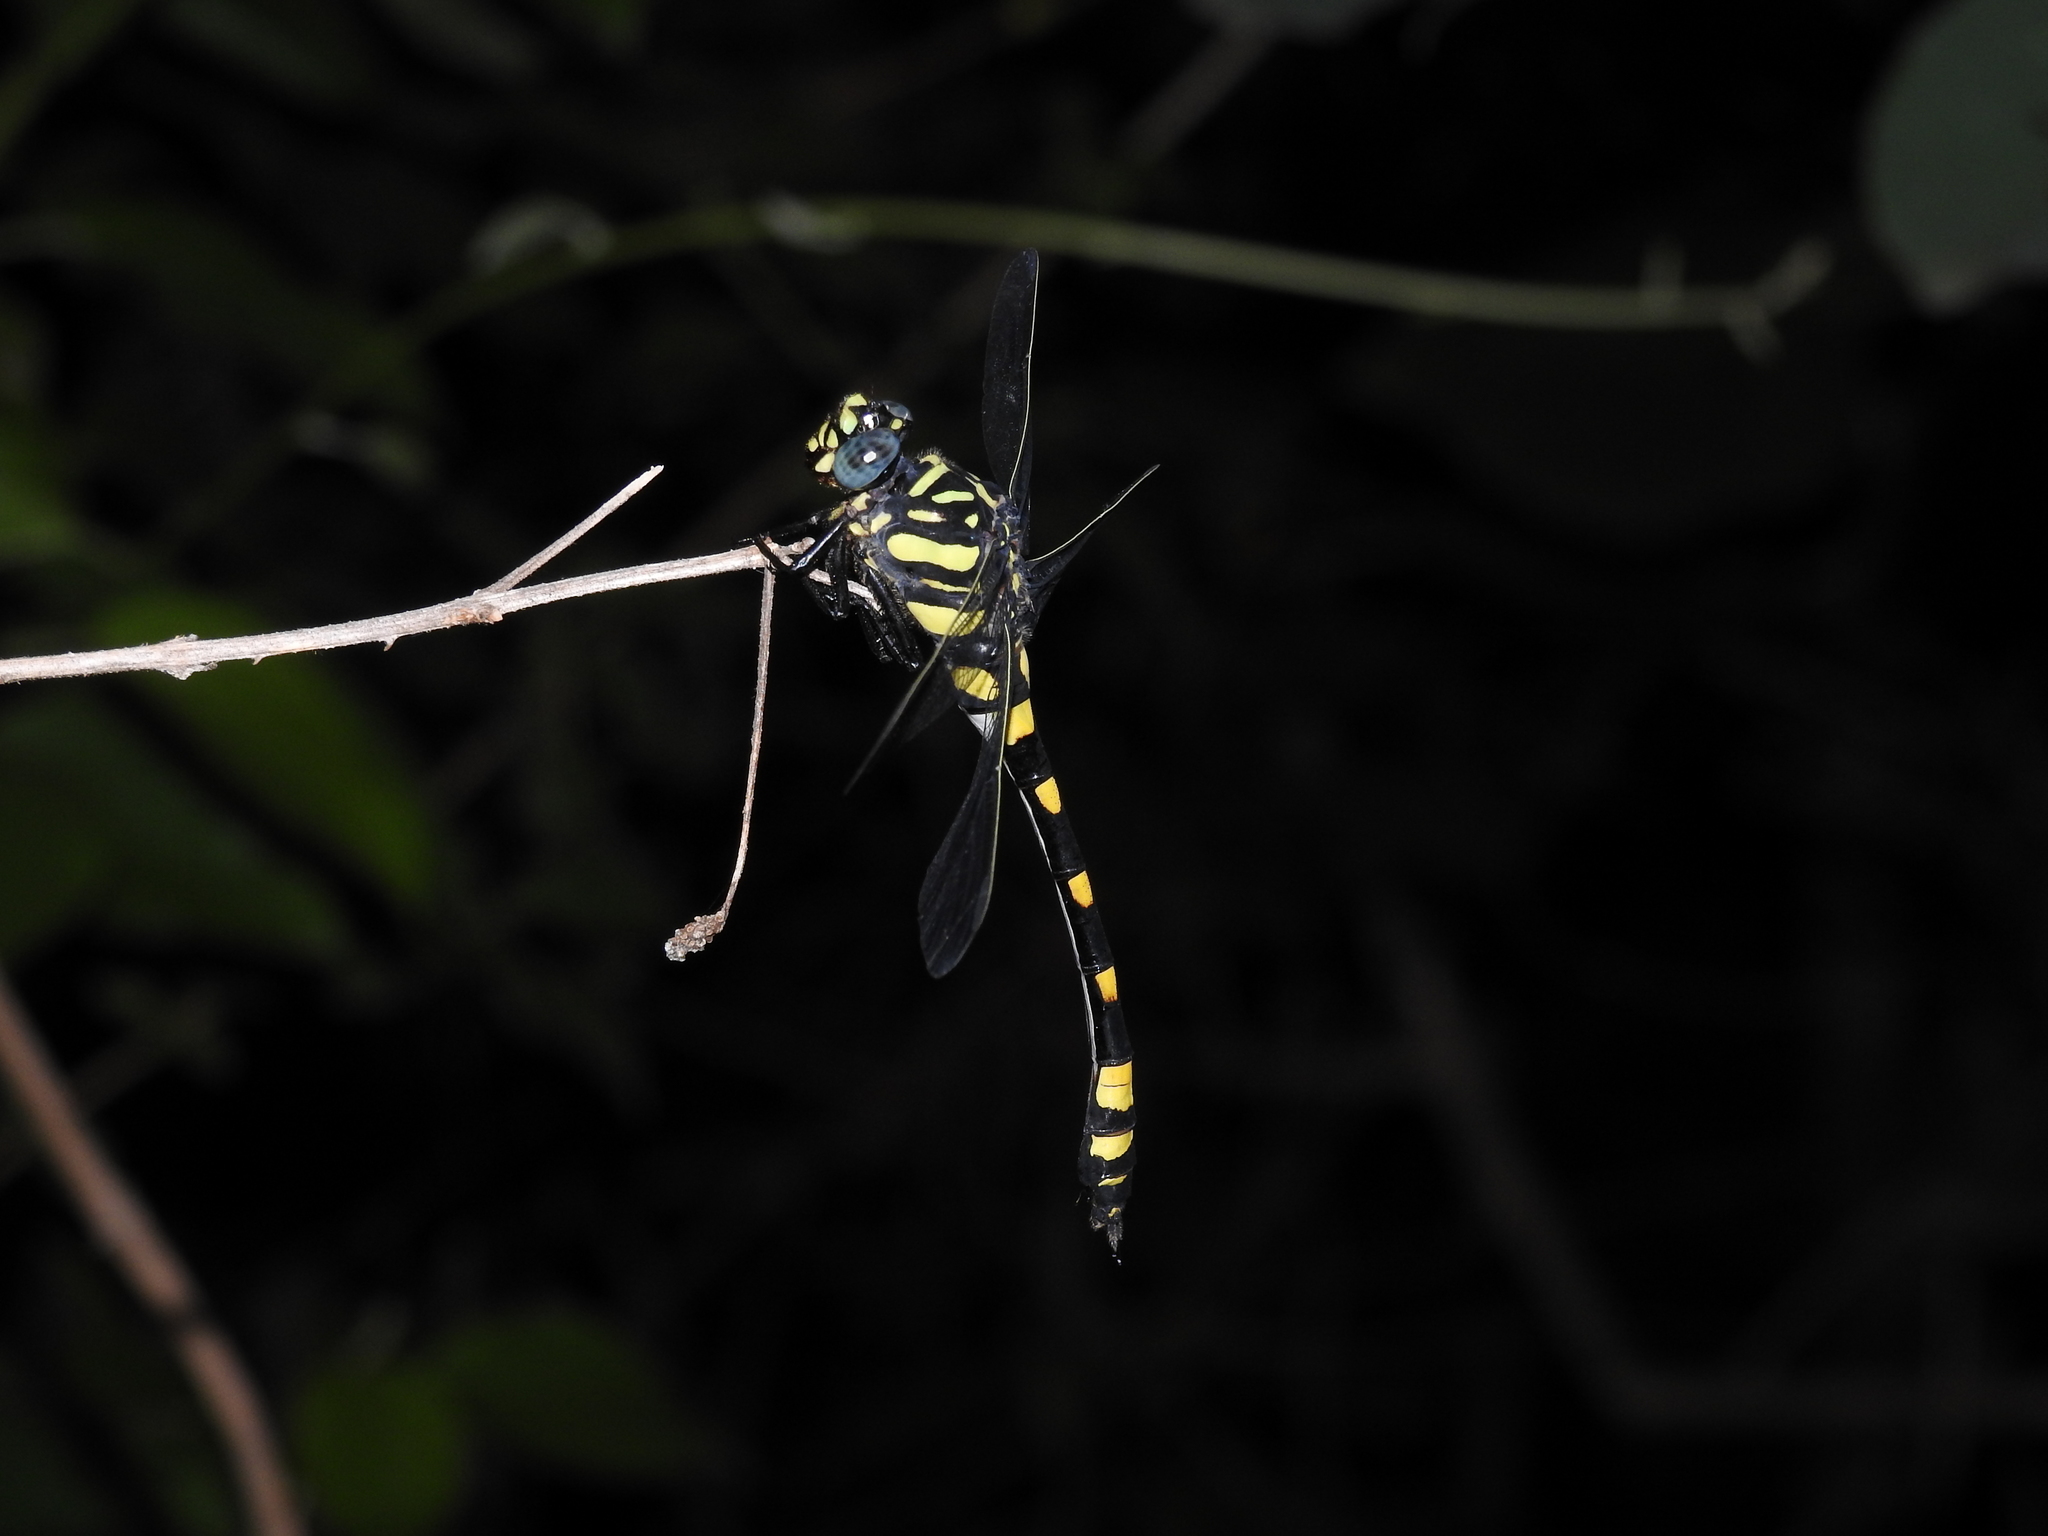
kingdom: Animalia
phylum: Arthropoda
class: Insecta
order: Odonata
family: Gomphidae
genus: Ictinogomphus
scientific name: Ictinogomphus rapax
